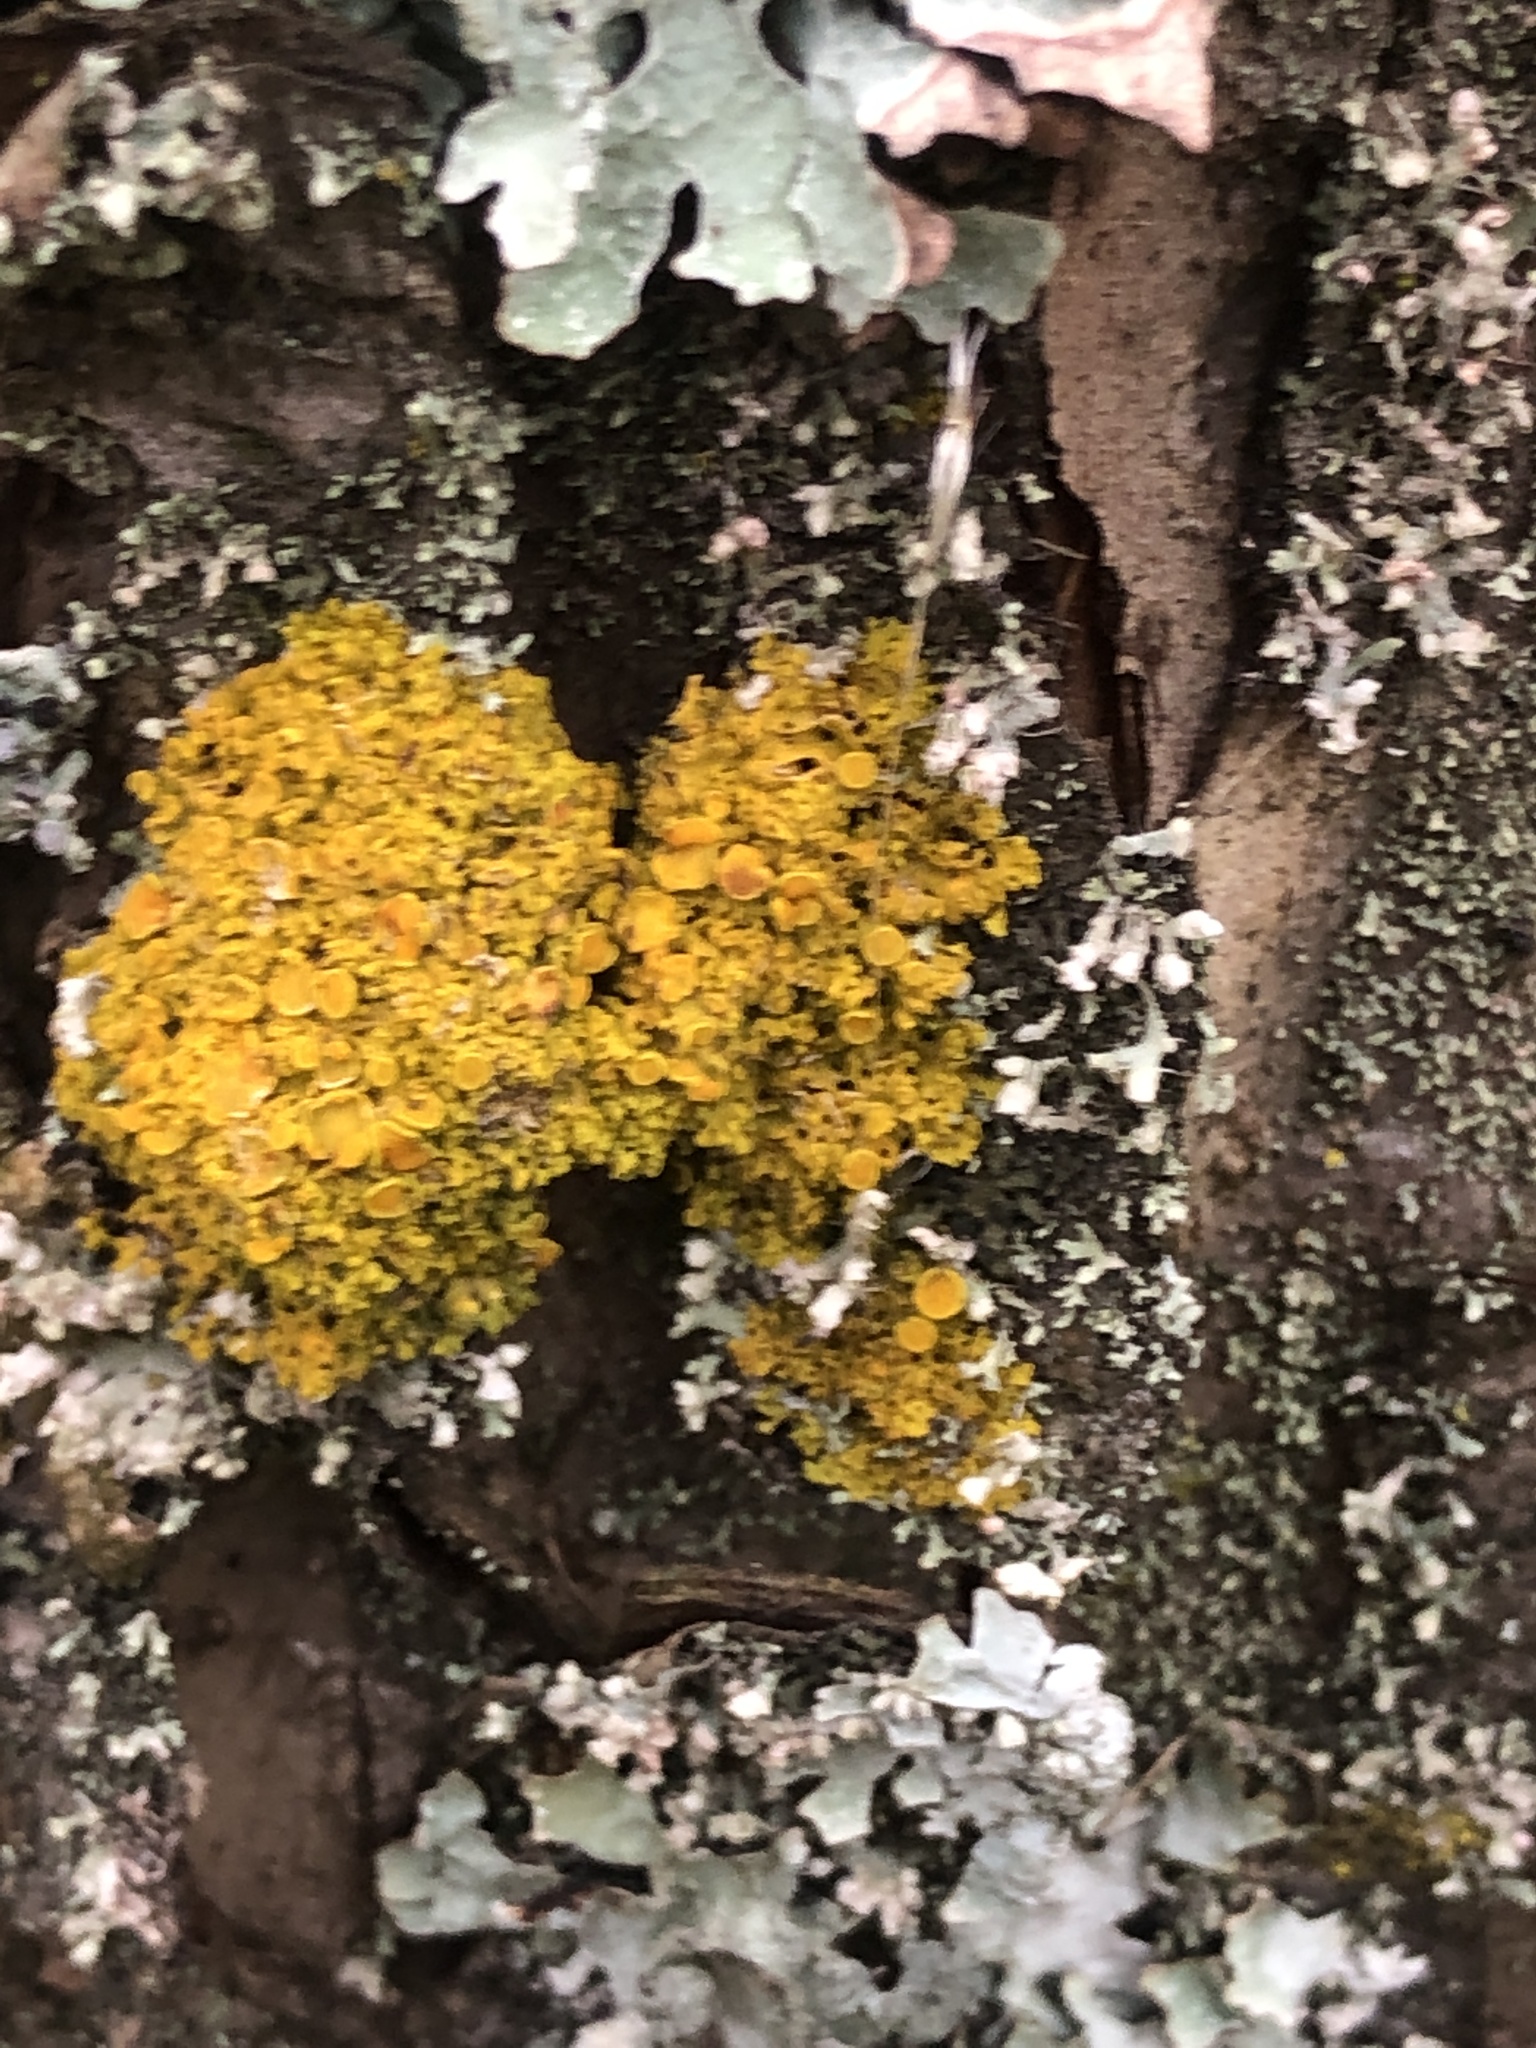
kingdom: Fungi
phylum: Ascomycota
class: Lecanoromycetes
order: Teloschistales
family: Teloschistaceae
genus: Gallowayella
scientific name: Gallowayella hasseana
